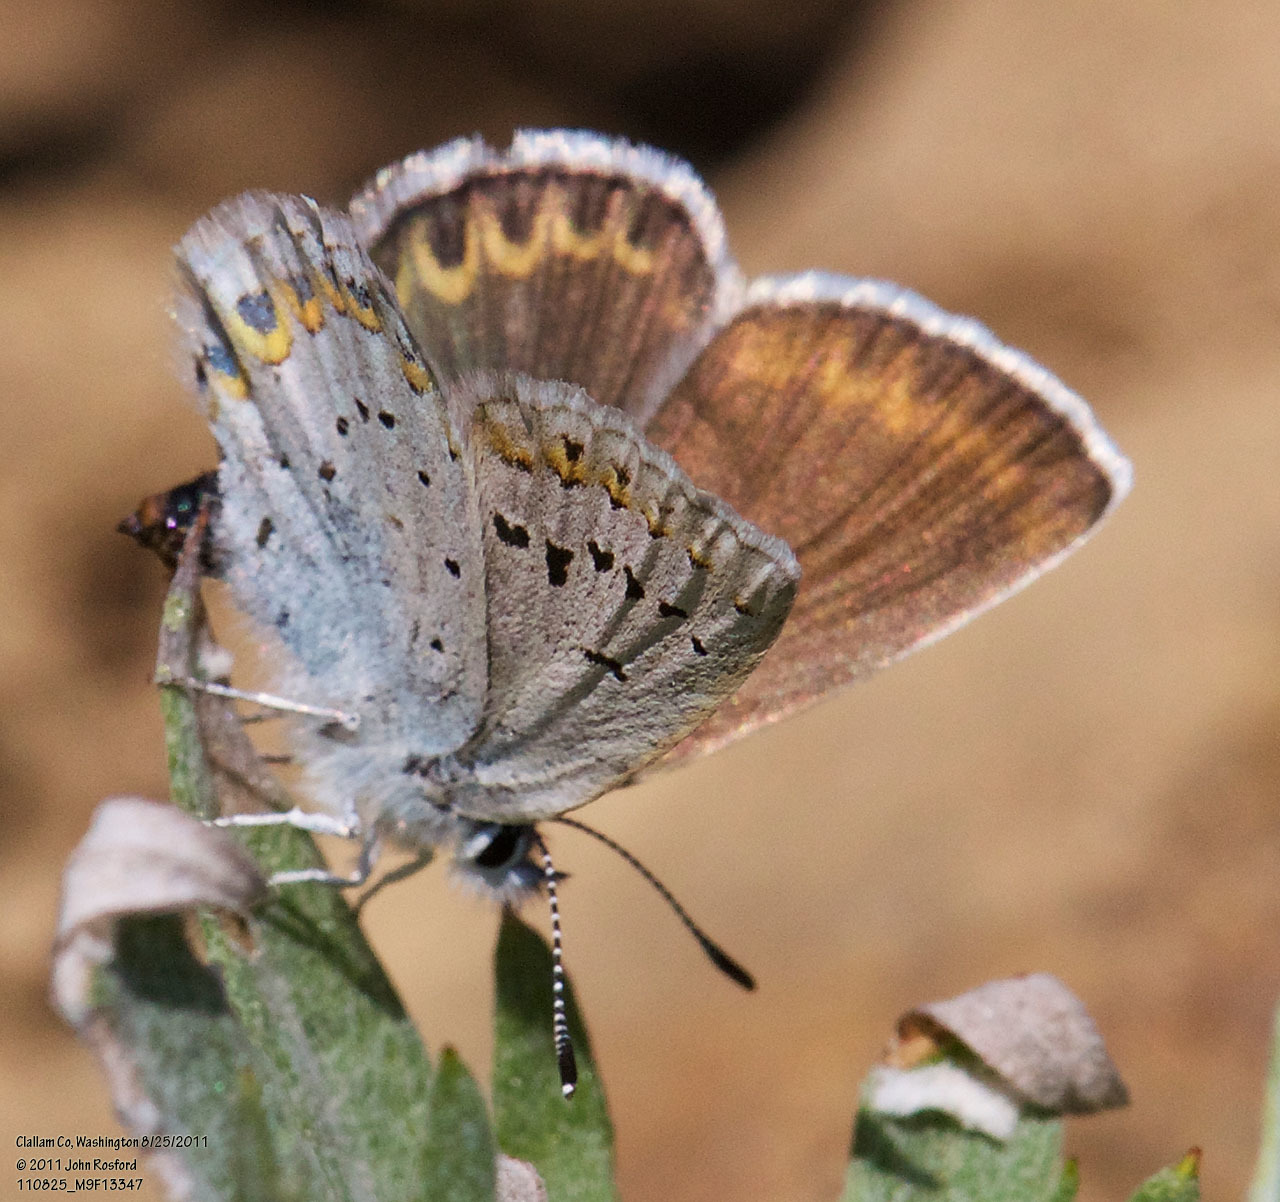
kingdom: Animalia
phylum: Arthropoda
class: Insecta
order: Lepidoptera
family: Lycaenidae
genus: Lycaeides
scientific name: Lycaeides anna
